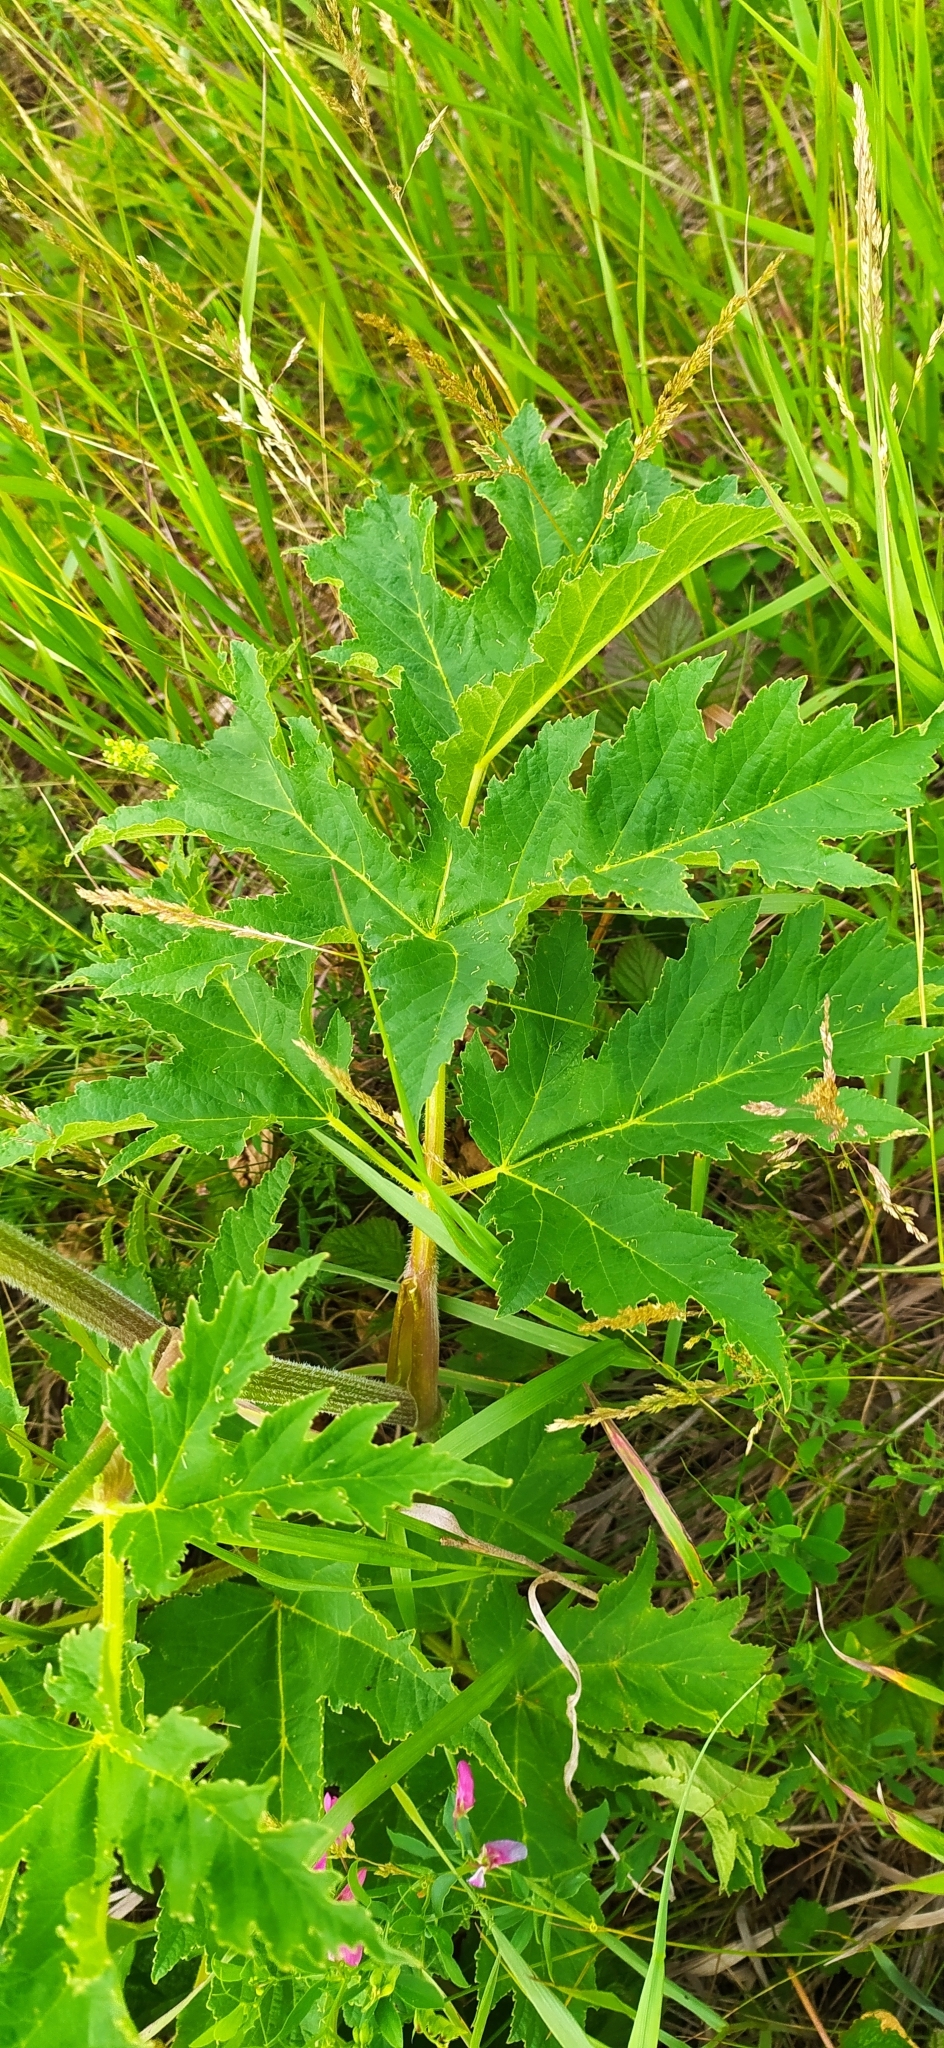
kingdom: Plantae
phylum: Tracheophyta
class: Magnoliopsida
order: Apiales
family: Apiaceae
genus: Heracleum
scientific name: Heracleum sphondylium
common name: Hogweed
